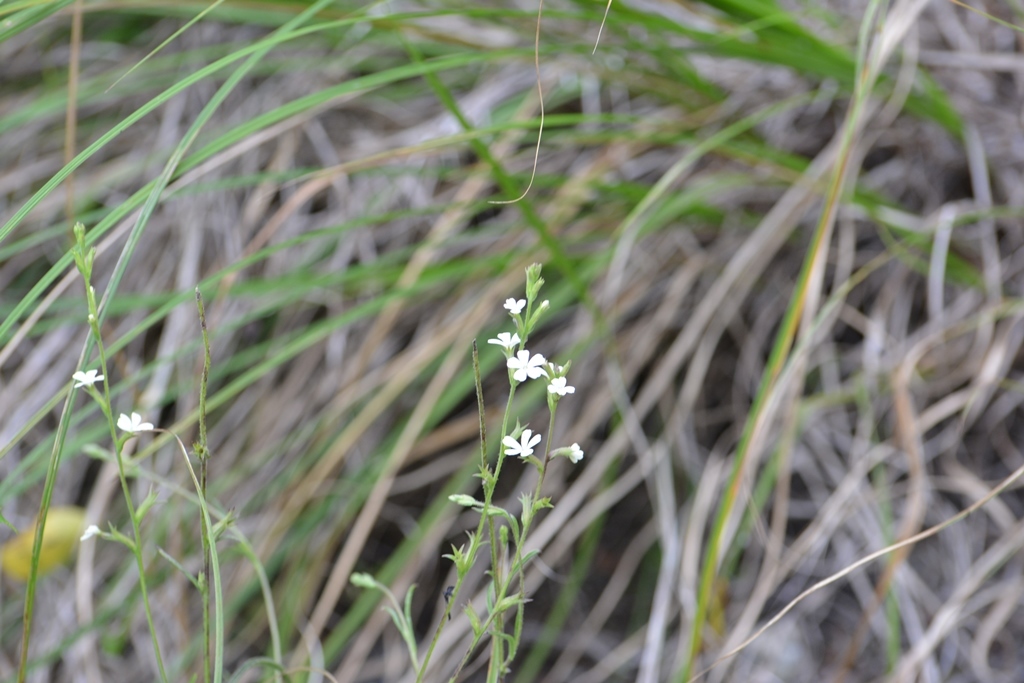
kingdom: Plantae
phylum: Tracheophyta
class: Magnoliopsida
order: Lamiales
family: Orobanchaceae
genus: Buchnera
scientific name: Buchnera pusilla
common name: Pygmy bluehearts
